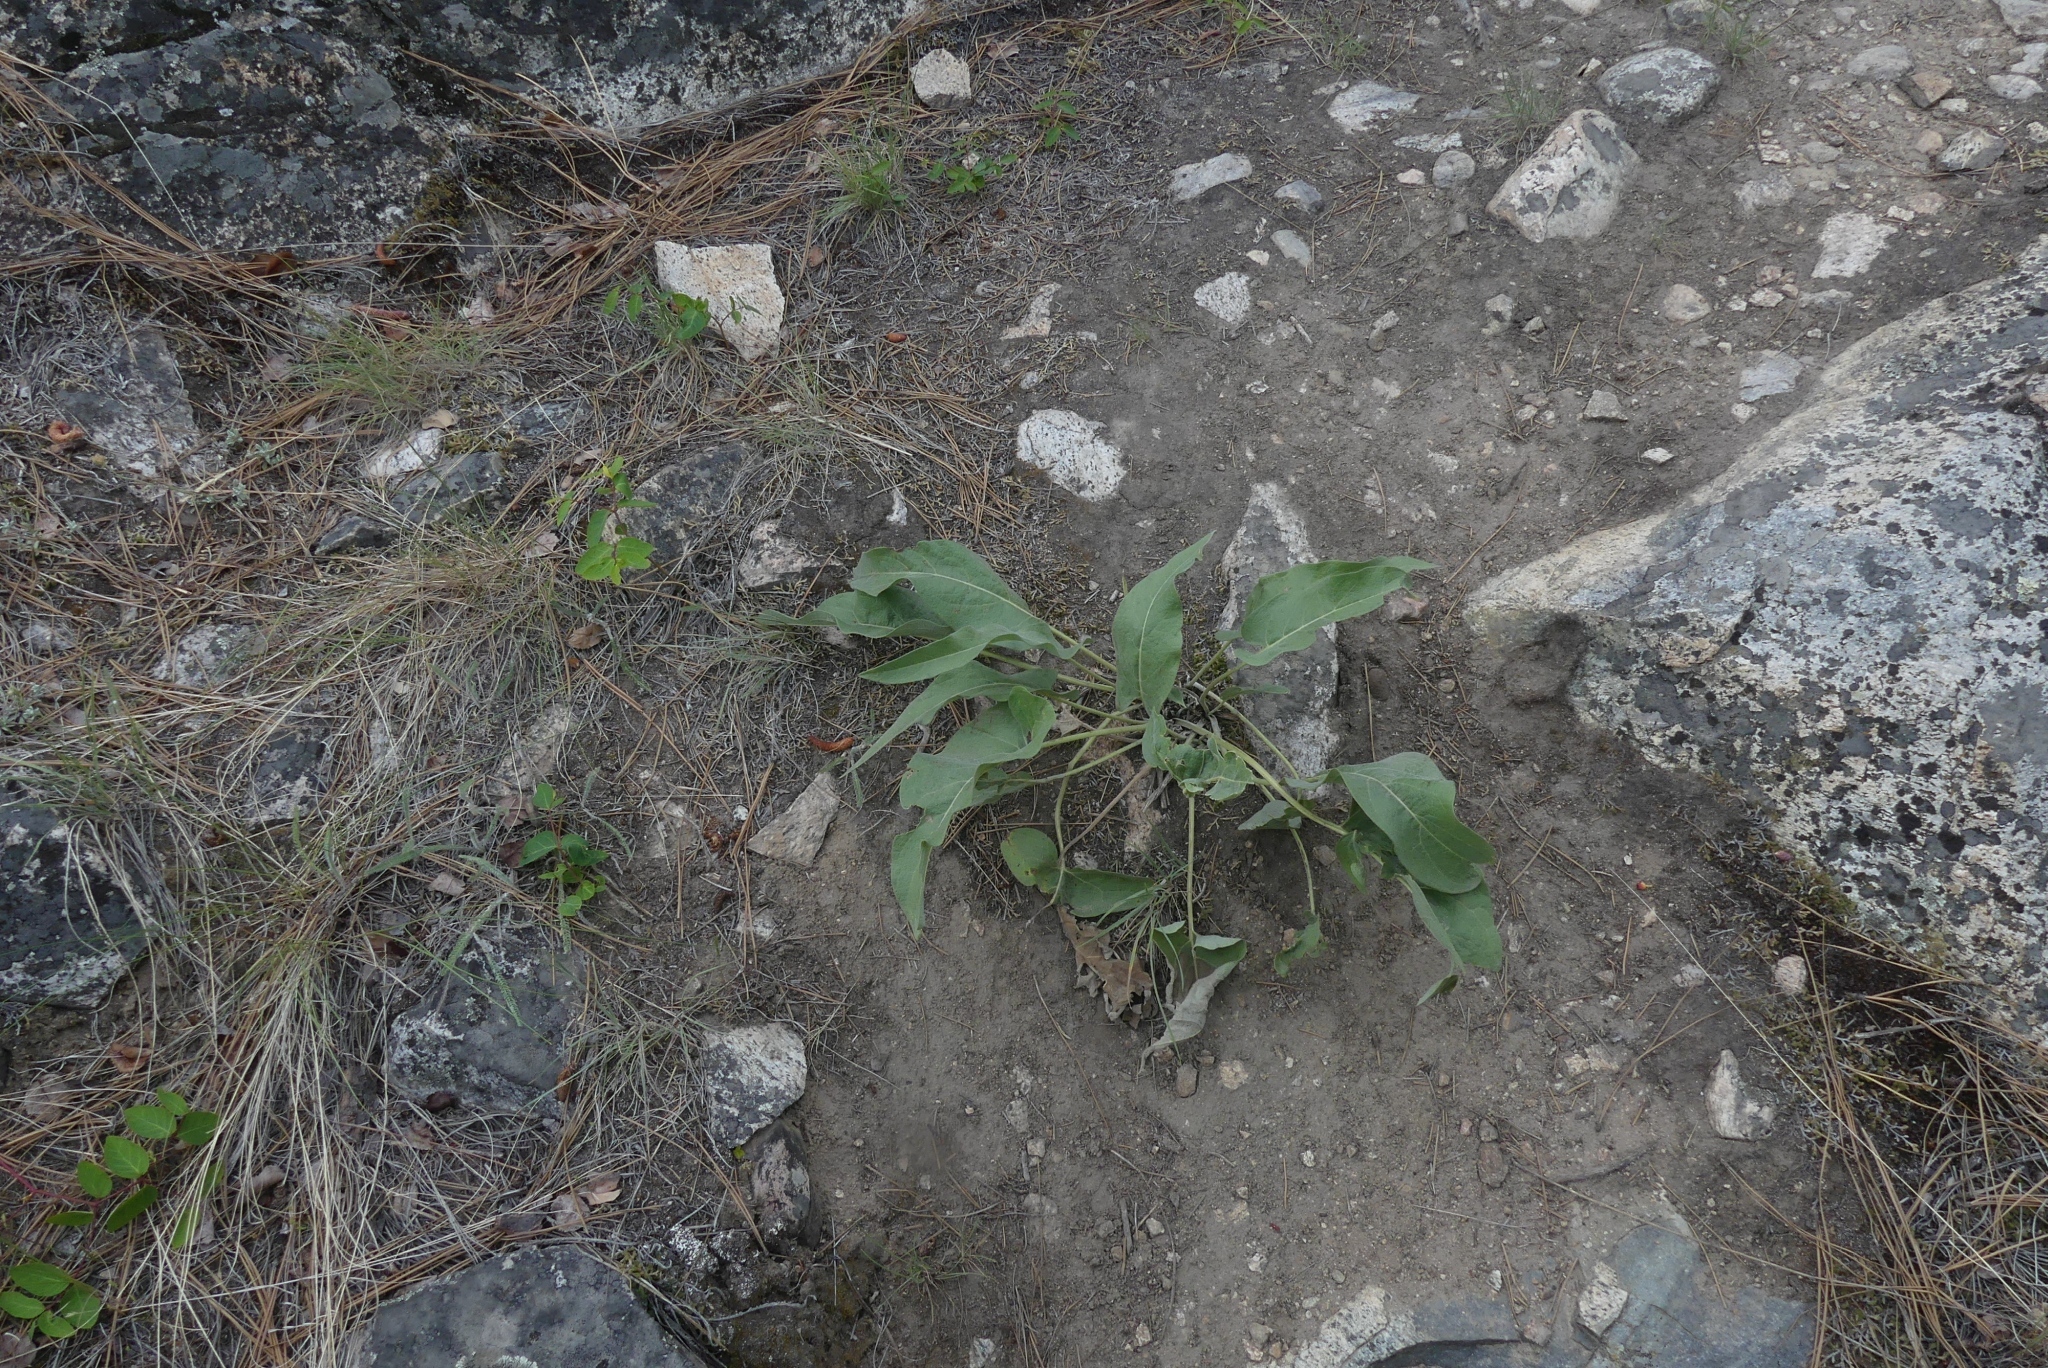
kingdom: Plantae
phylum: Tracheophyta
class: Magnoliopsida
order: Asterales
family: Asteraceae
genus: Wyethia
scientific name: Wyethia sagittata
